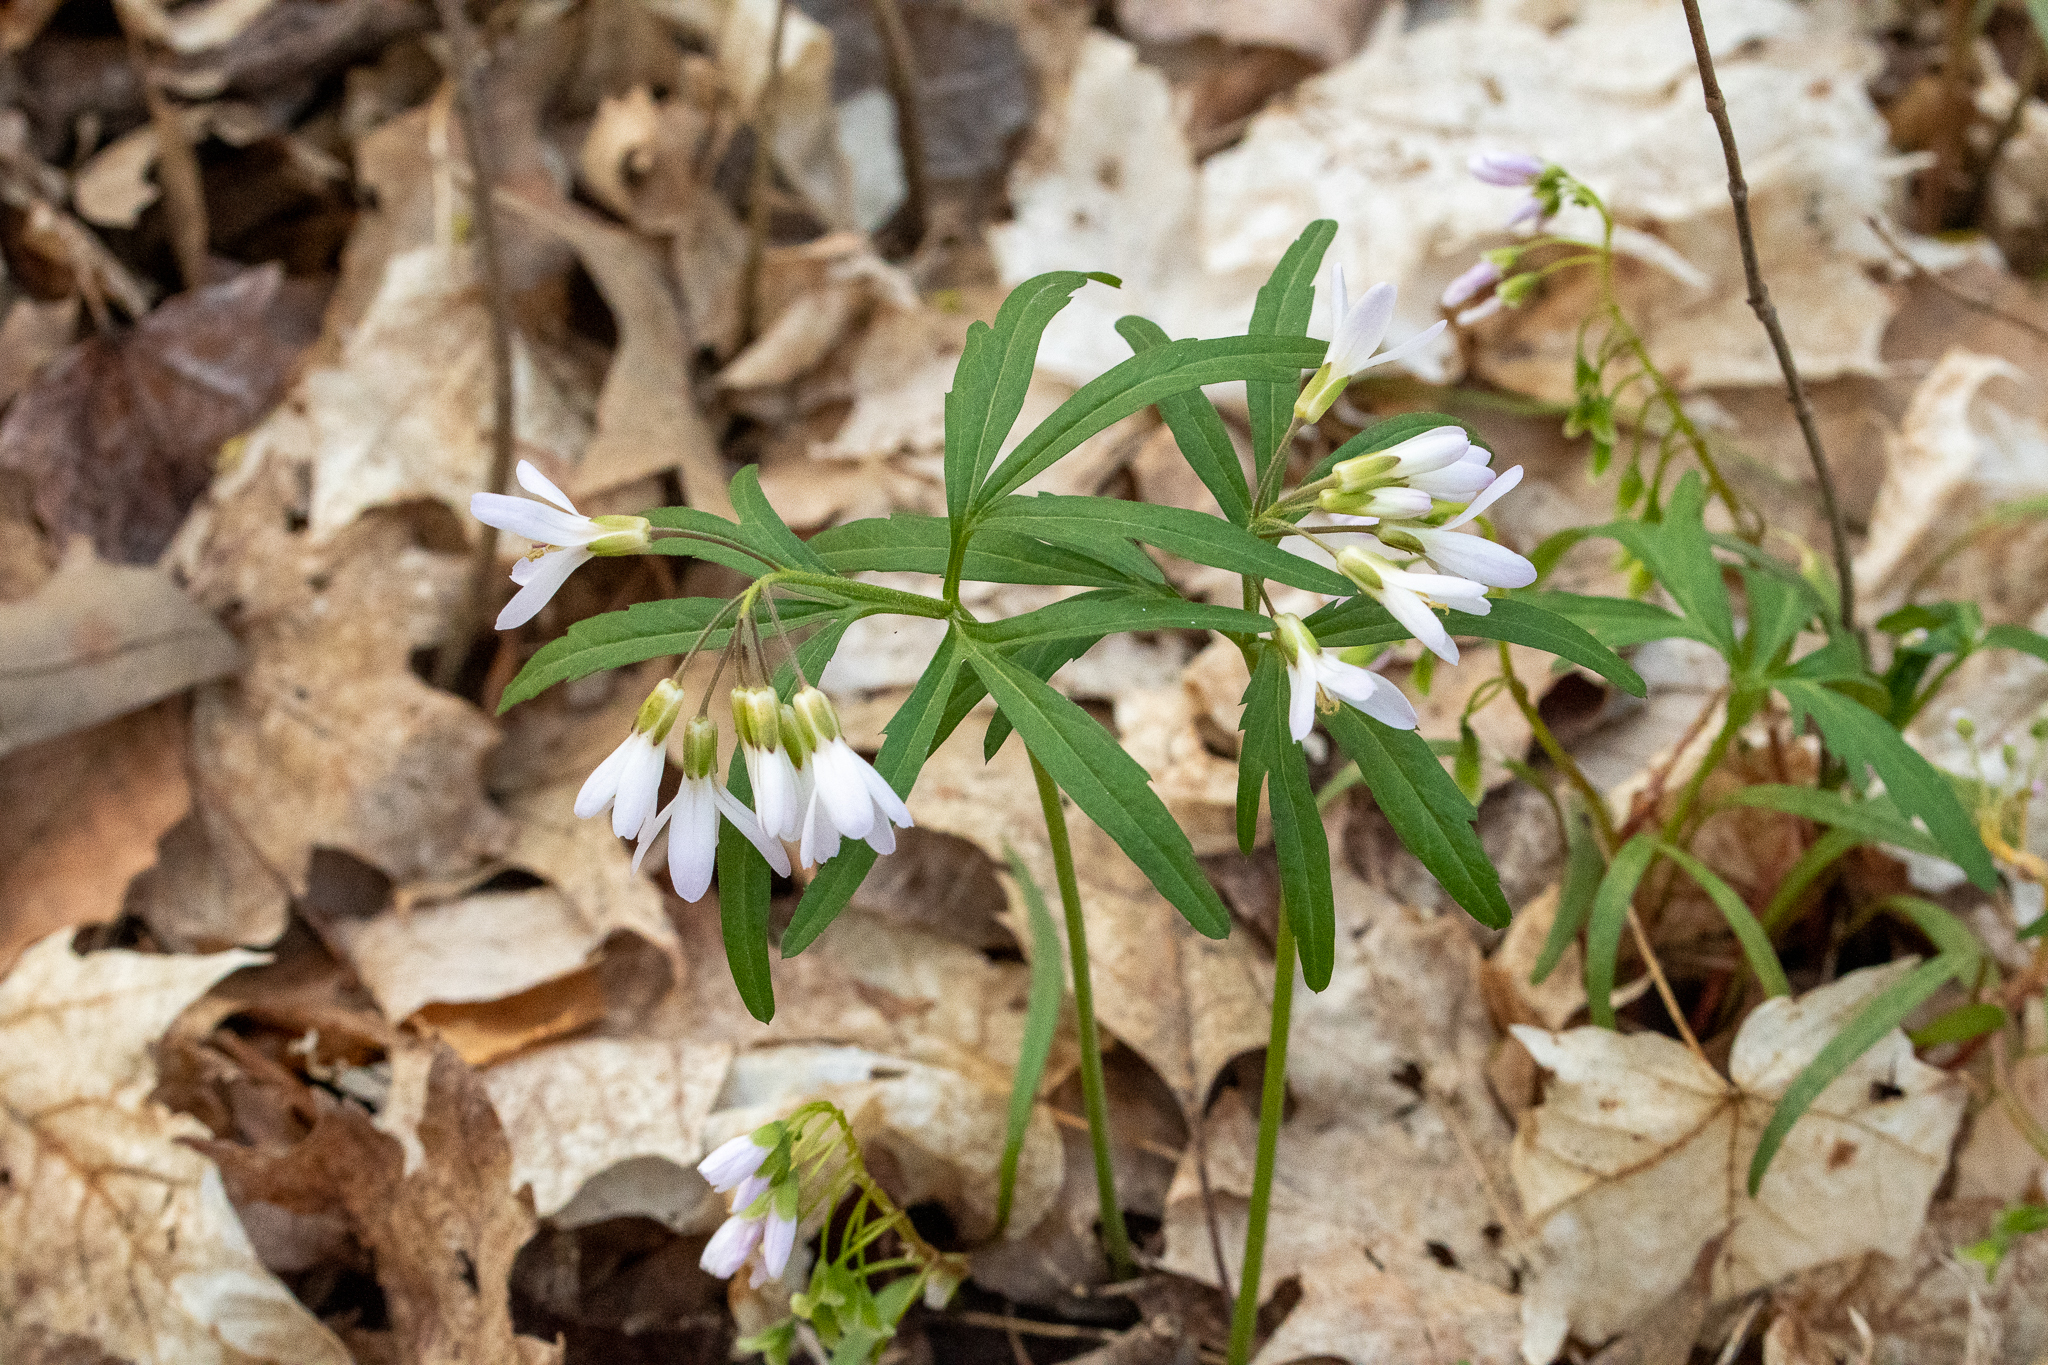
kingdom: Plantae
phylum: Tracheophyta
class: Magnoliopsida
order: Brassicales
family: Brassicaceae
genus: Cardamine
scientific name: Cardamine concatenata
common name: Cut-leaf toothcup
